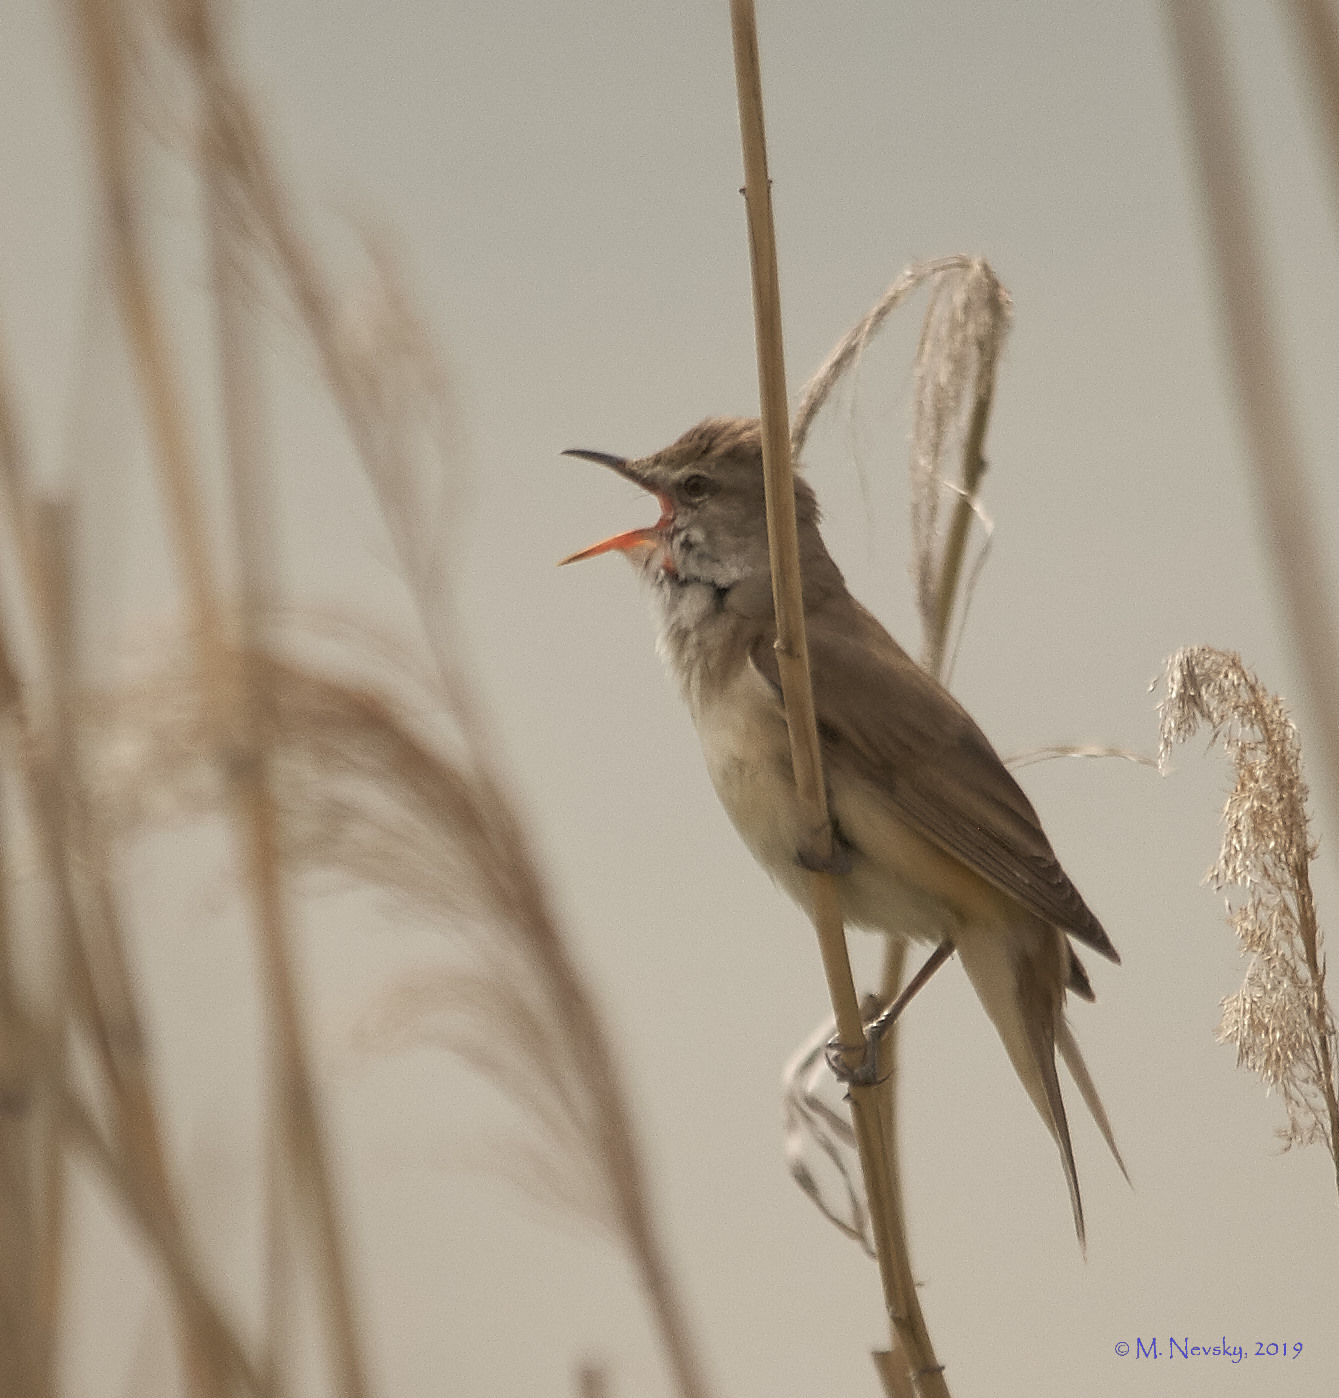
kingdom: Animalia
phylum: Chordata
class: Aves
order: Passeriformes
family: Acrocephalidae
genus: Acrocephalus
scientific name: Acrocephalus arundinaceus
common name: Great reed warbler
